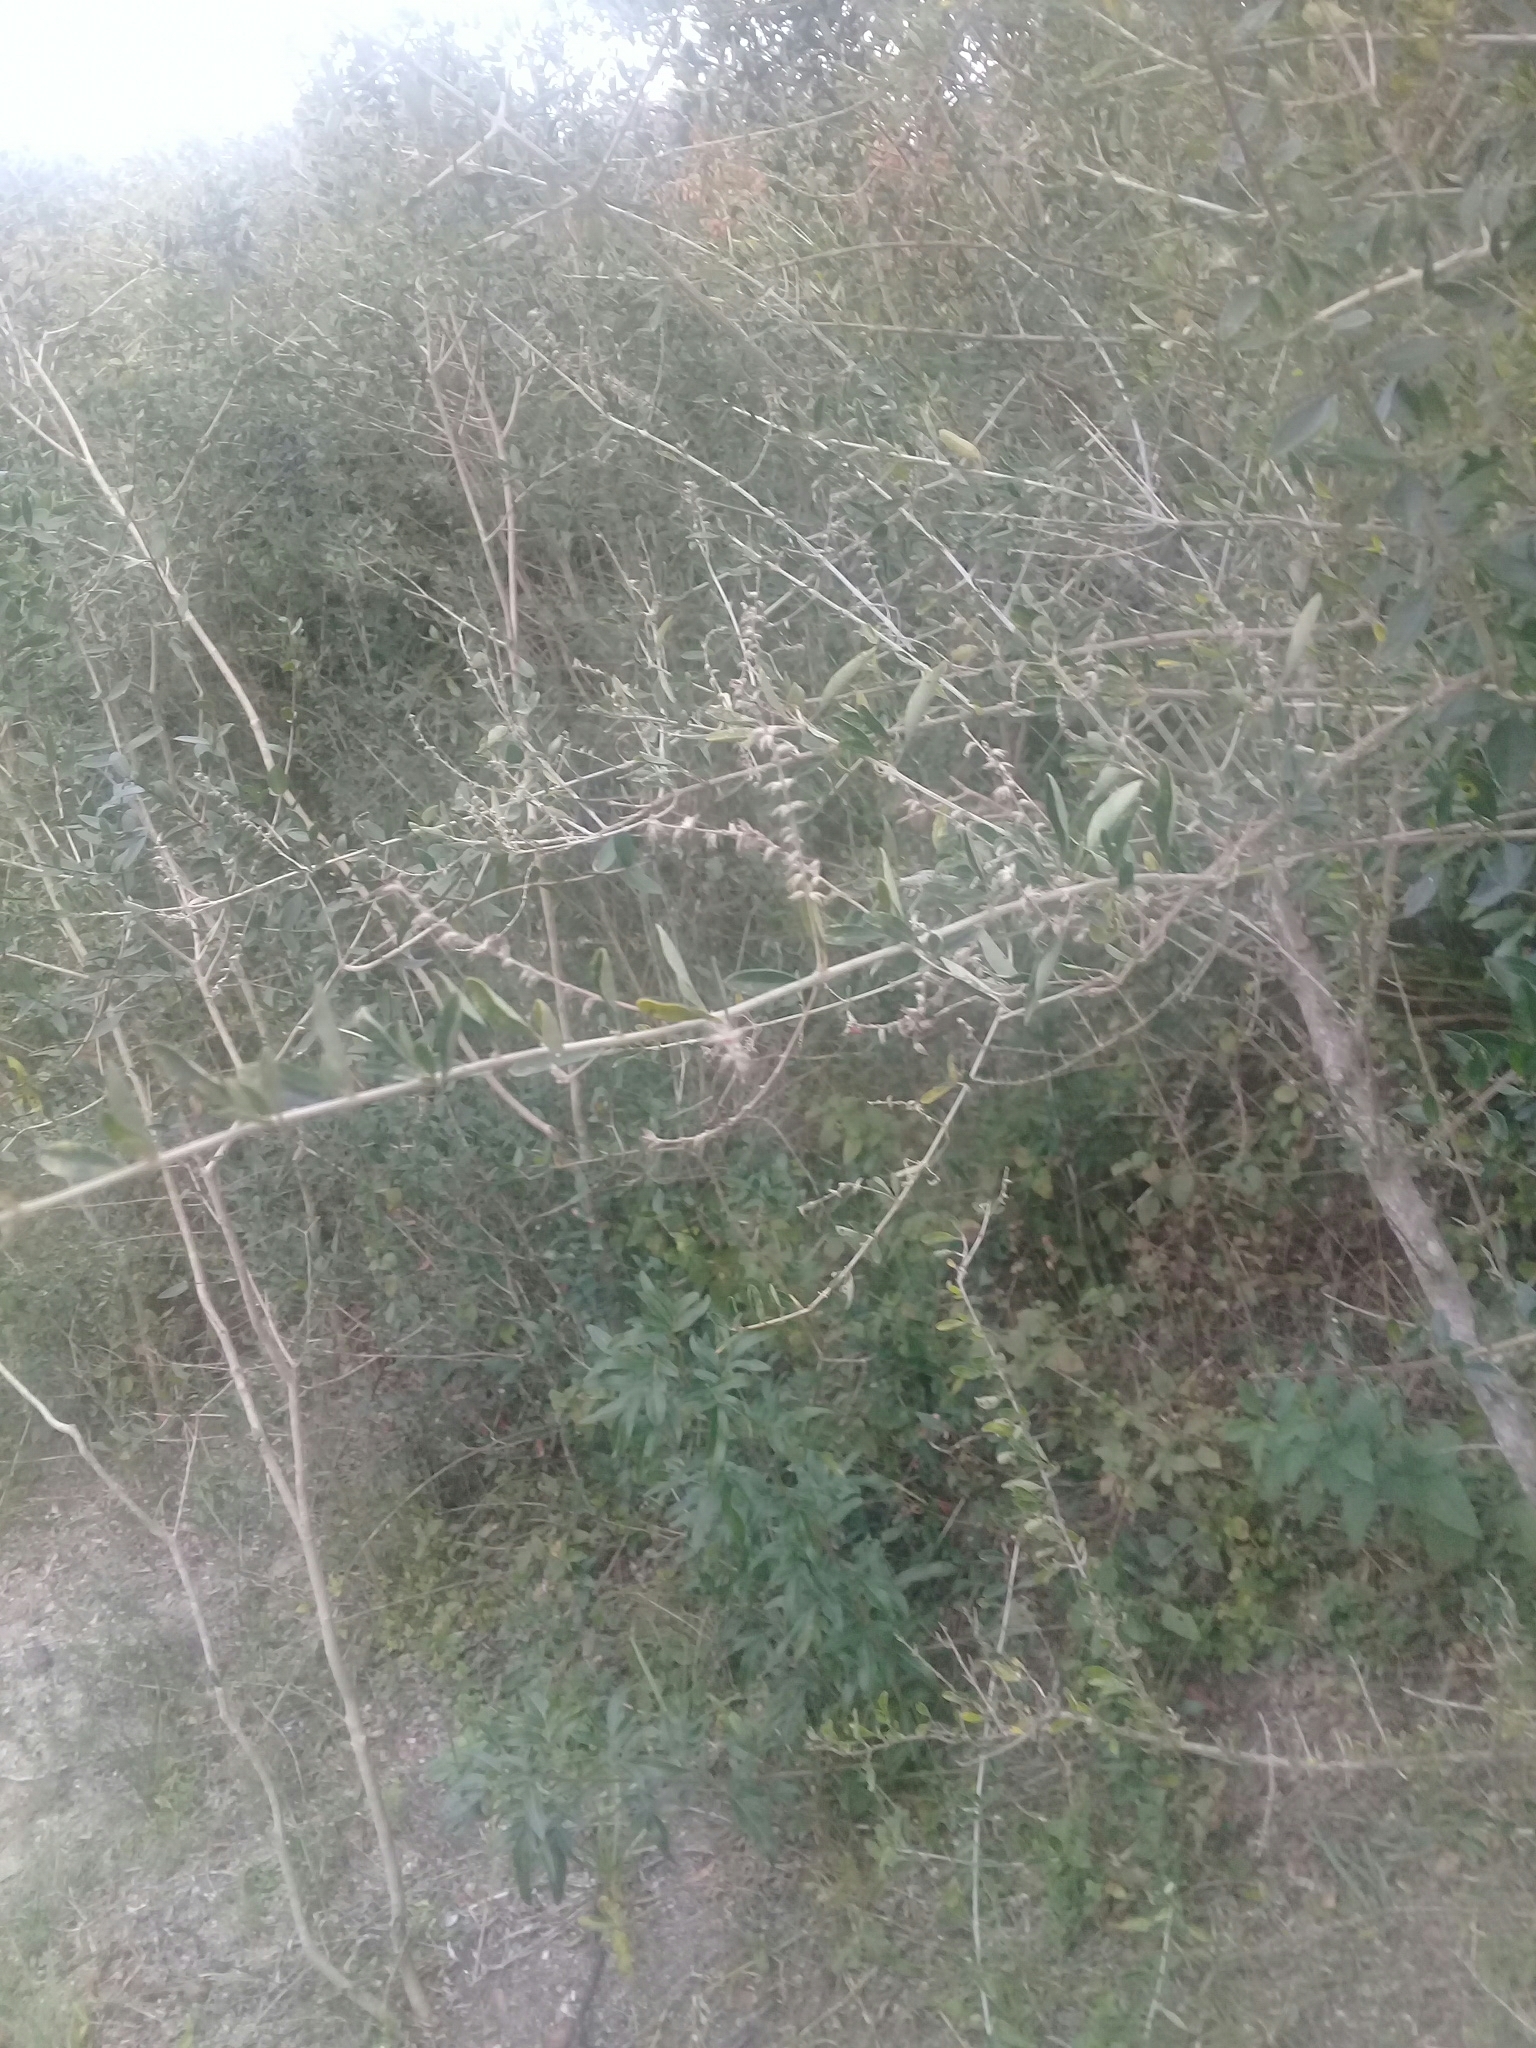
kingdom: Plantae
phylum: Tracheophyta
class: Magnoliopsida
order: Lamiales
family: Verbenaceae
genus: Aloysia
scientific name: Aloysia gratissima
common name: Common bee-brush
